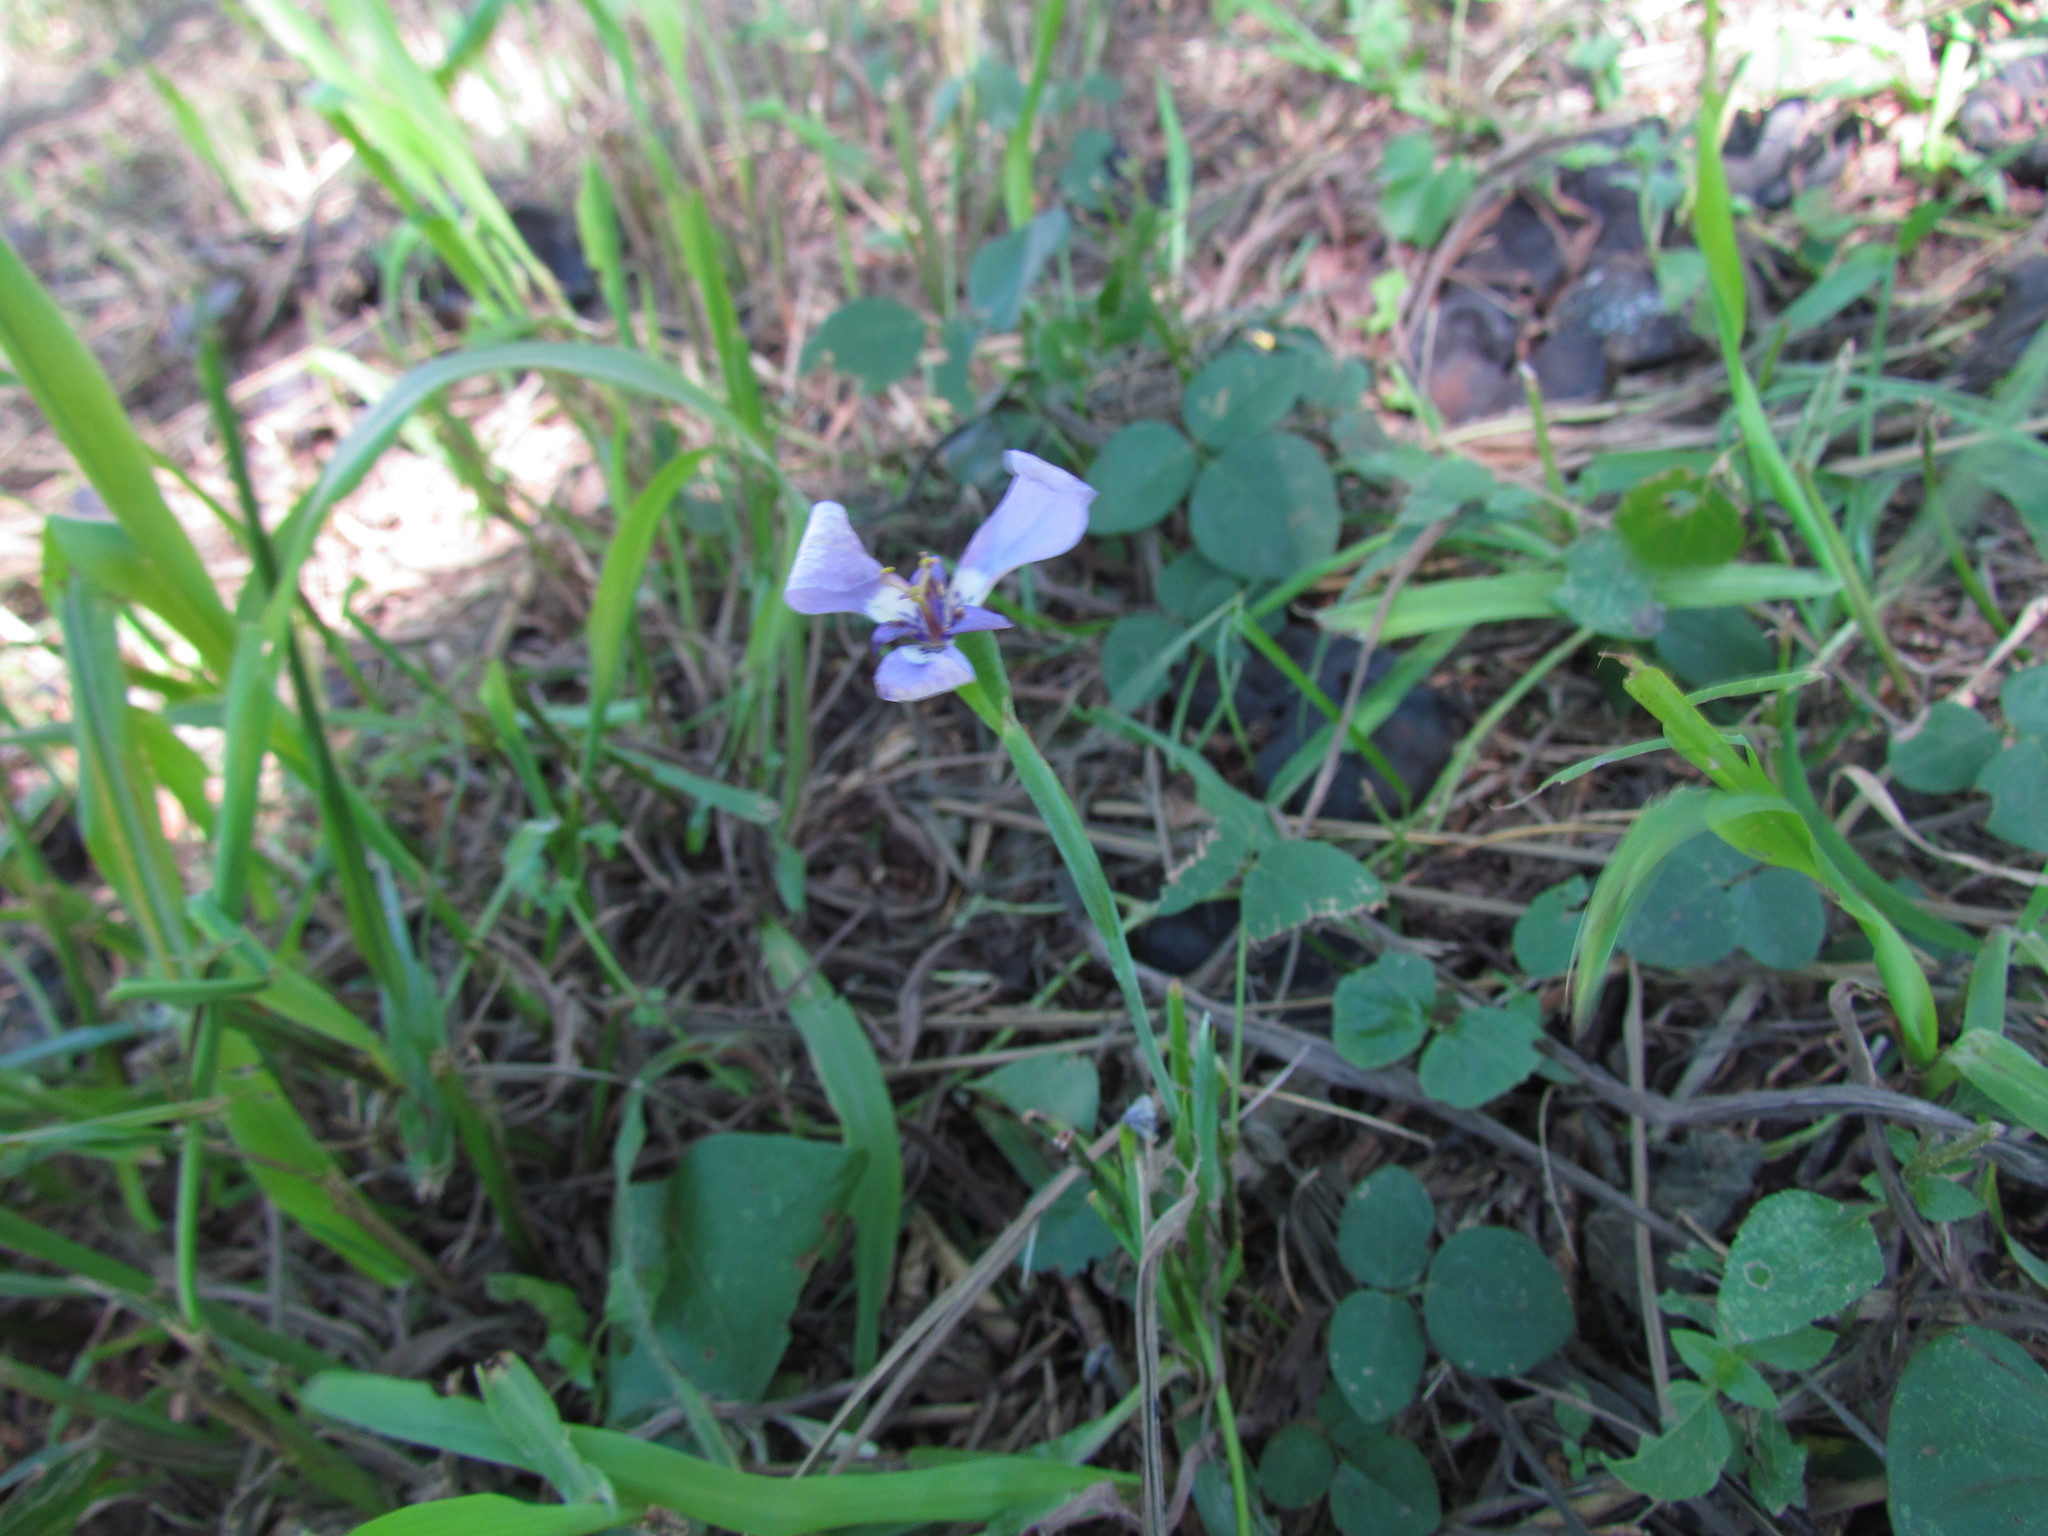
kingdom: Plantae
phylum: Tracheophyta
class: Liliopsida
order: Asparagales
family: Iridaceae
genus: Herbertia
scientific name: Herbertia lahue
